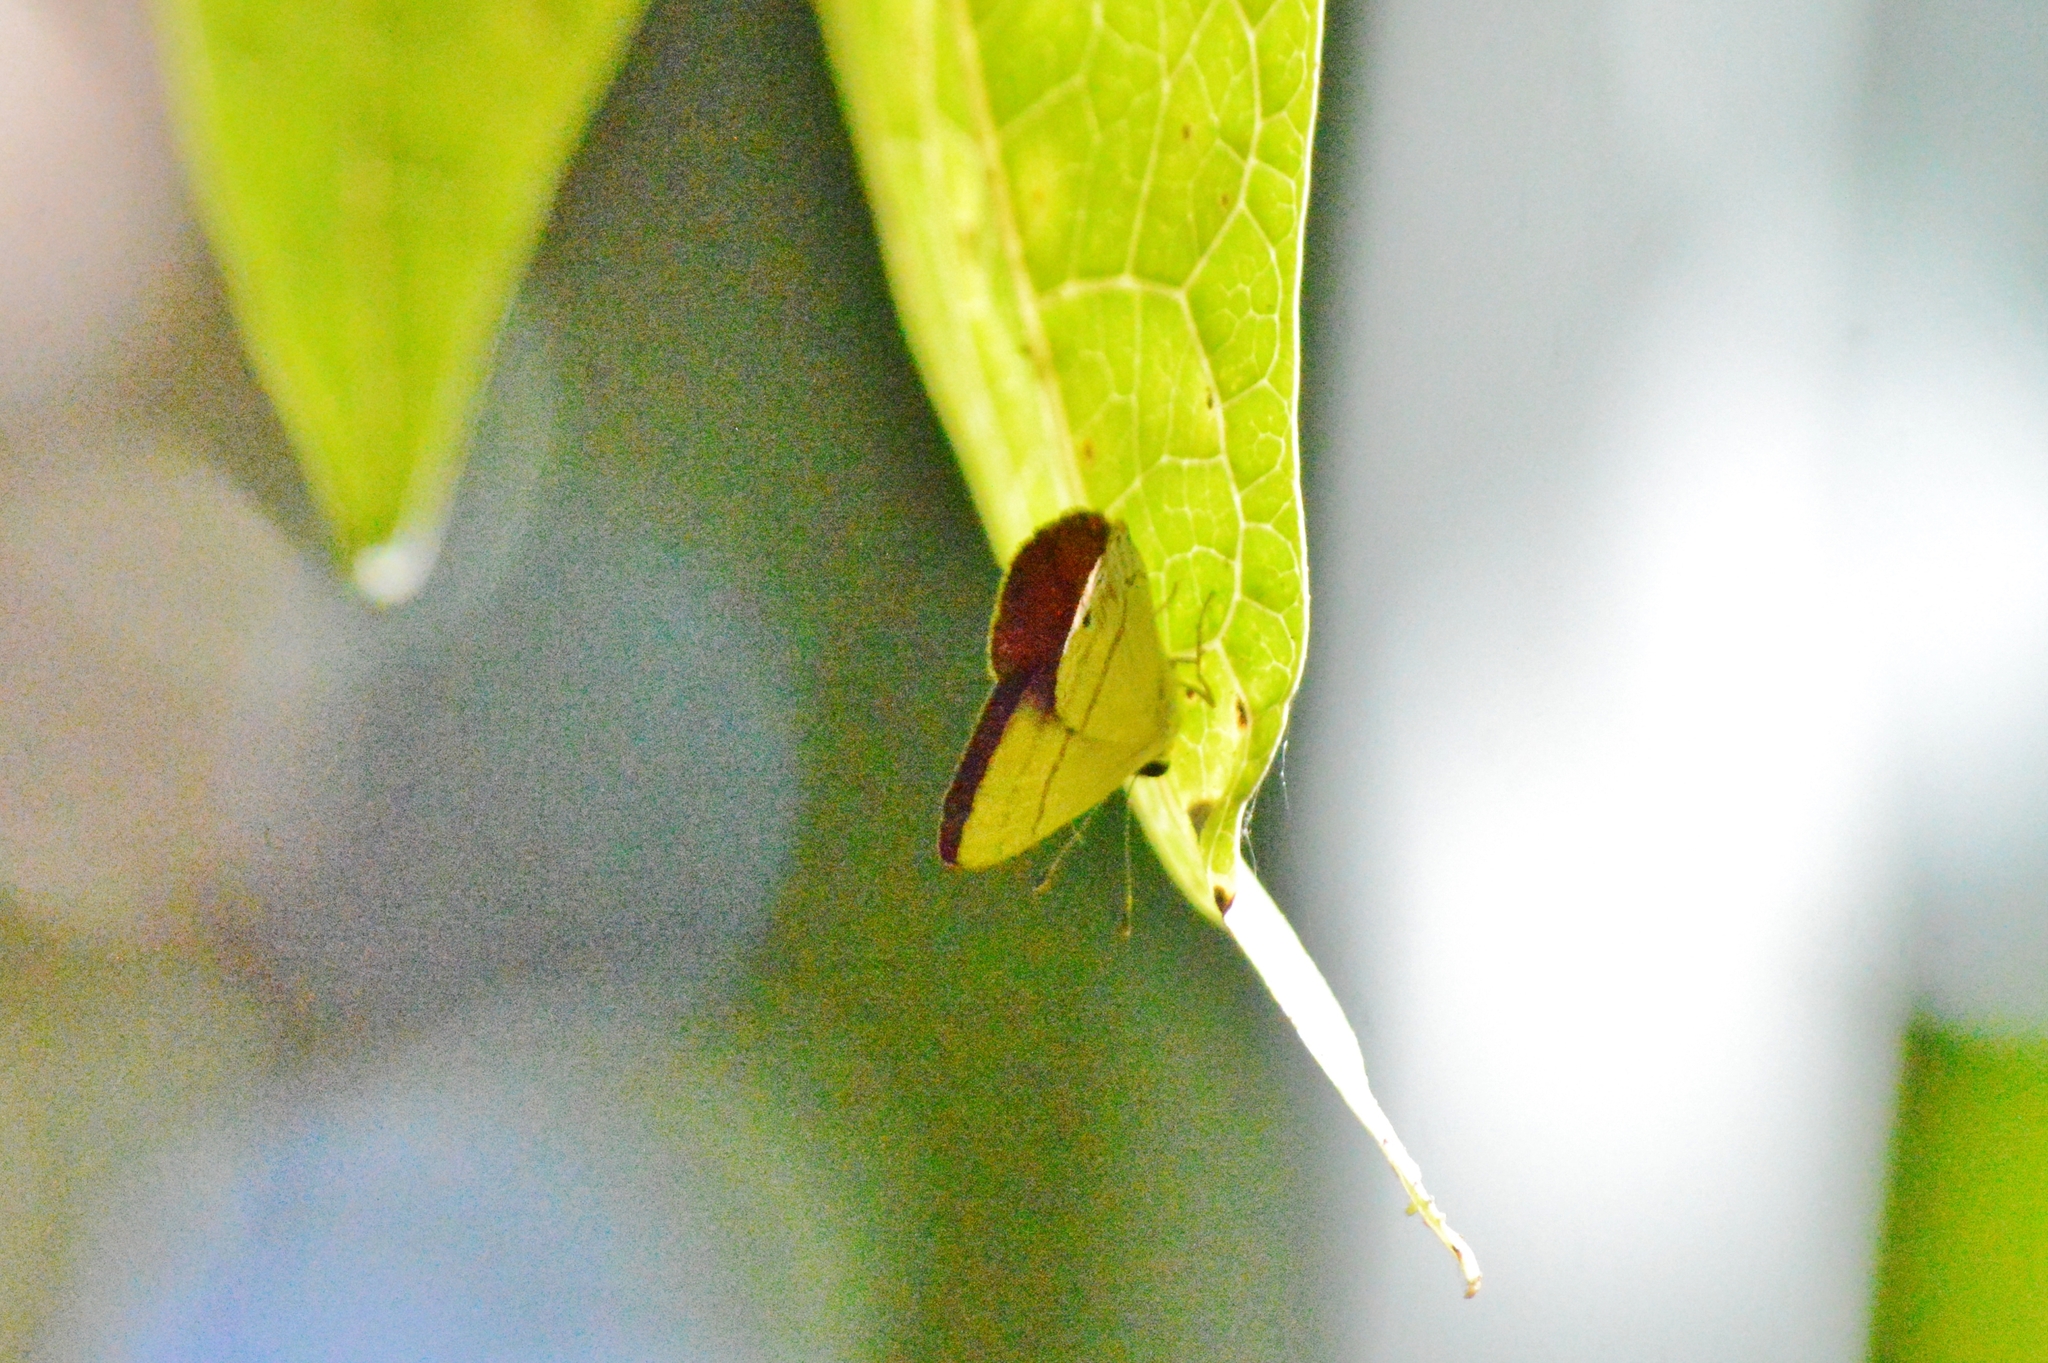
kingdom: Animalia
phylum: Arthropoda
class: Insecta
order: Lepidoptera
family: Riodinidae
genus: Myselasia
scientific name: Myselasia
